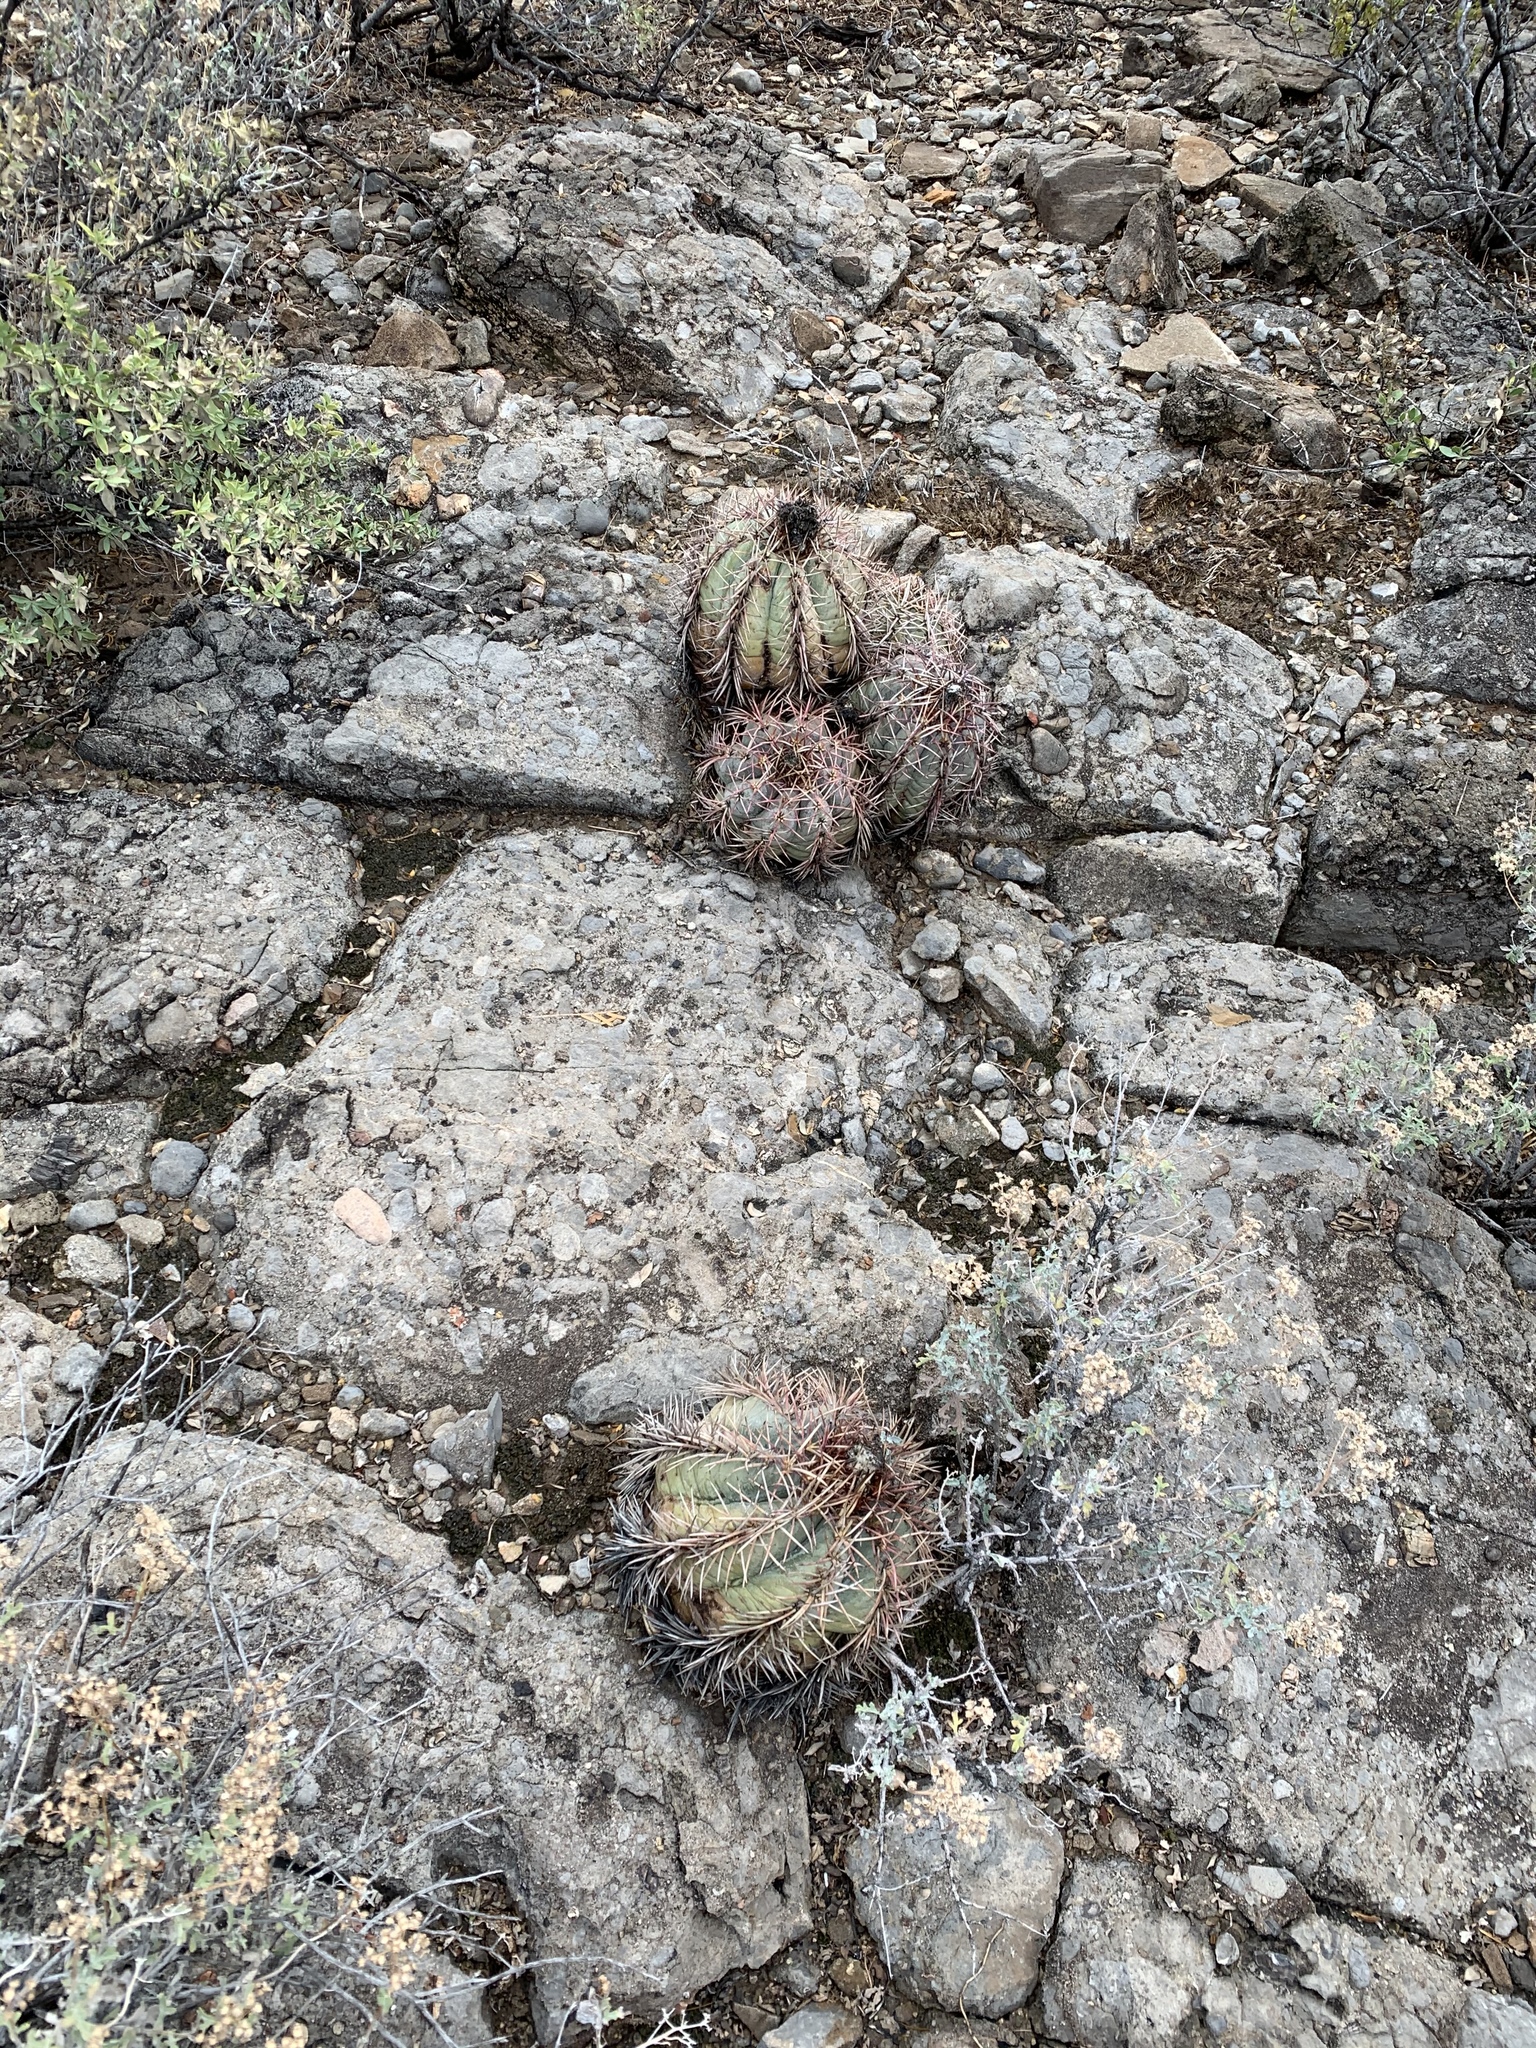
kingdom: Plantae
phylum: Tracheophyta
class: Magnoliopsida
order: Caryophyllales
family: Cactaceae
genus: Echinocactus
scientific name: Echinocactus horizonthalonius
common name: Devilshead
